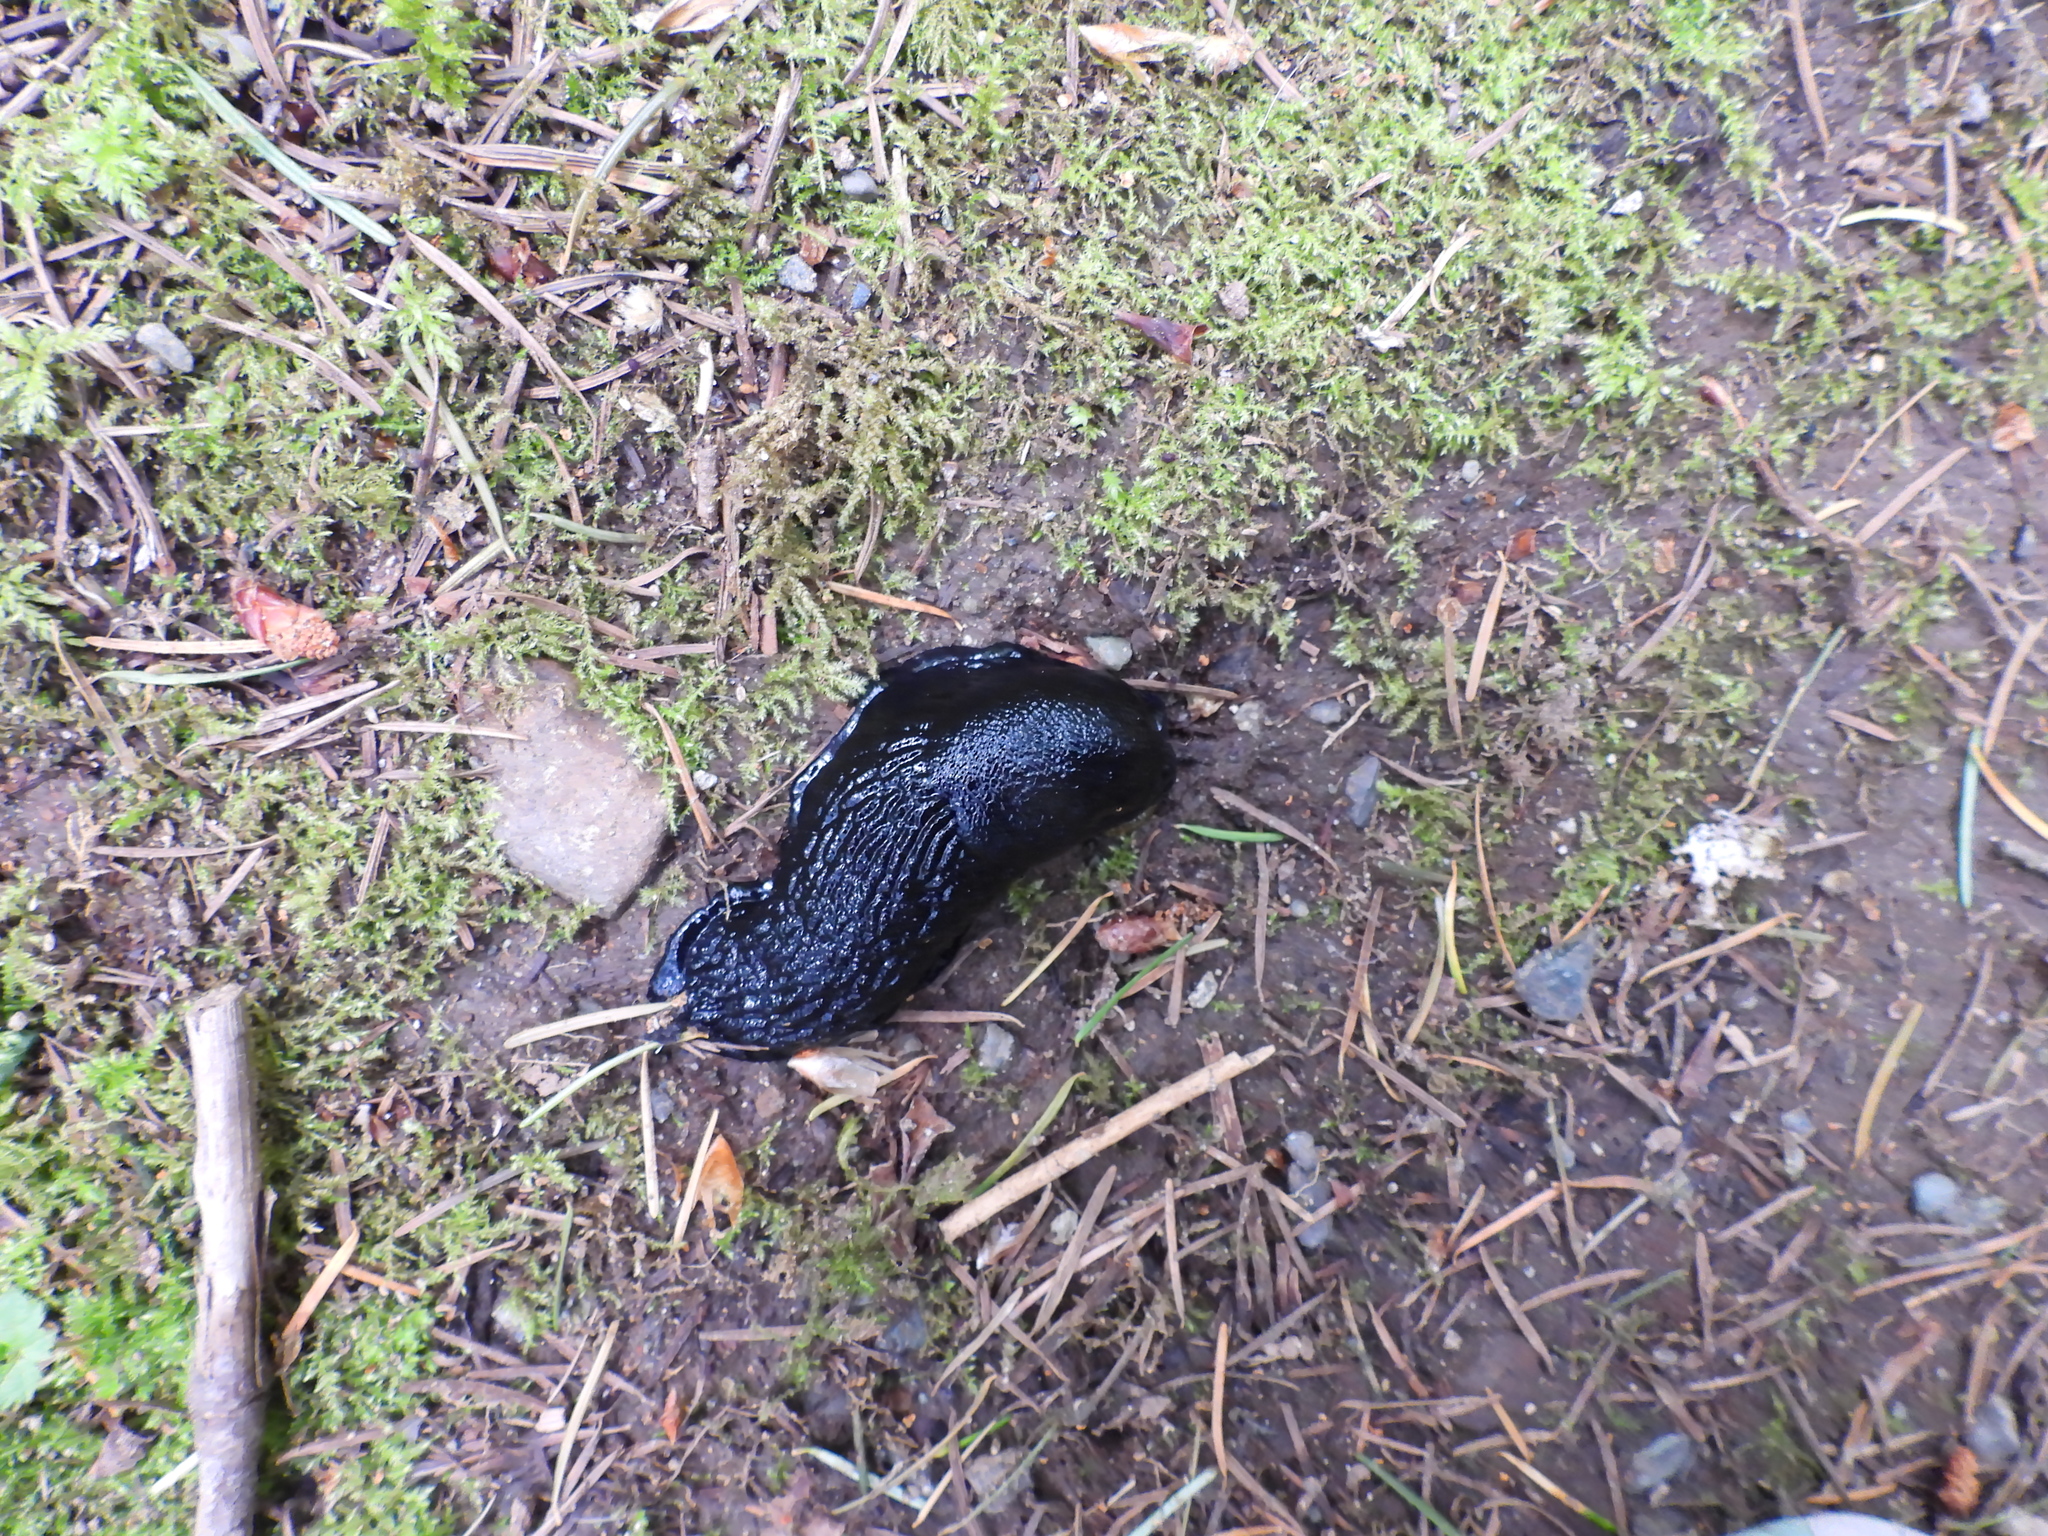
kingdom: Animalia
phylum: Mollusca
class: Gastropoda
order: Stylommatophora
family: Arionidae
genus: Arion
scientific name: Arion
